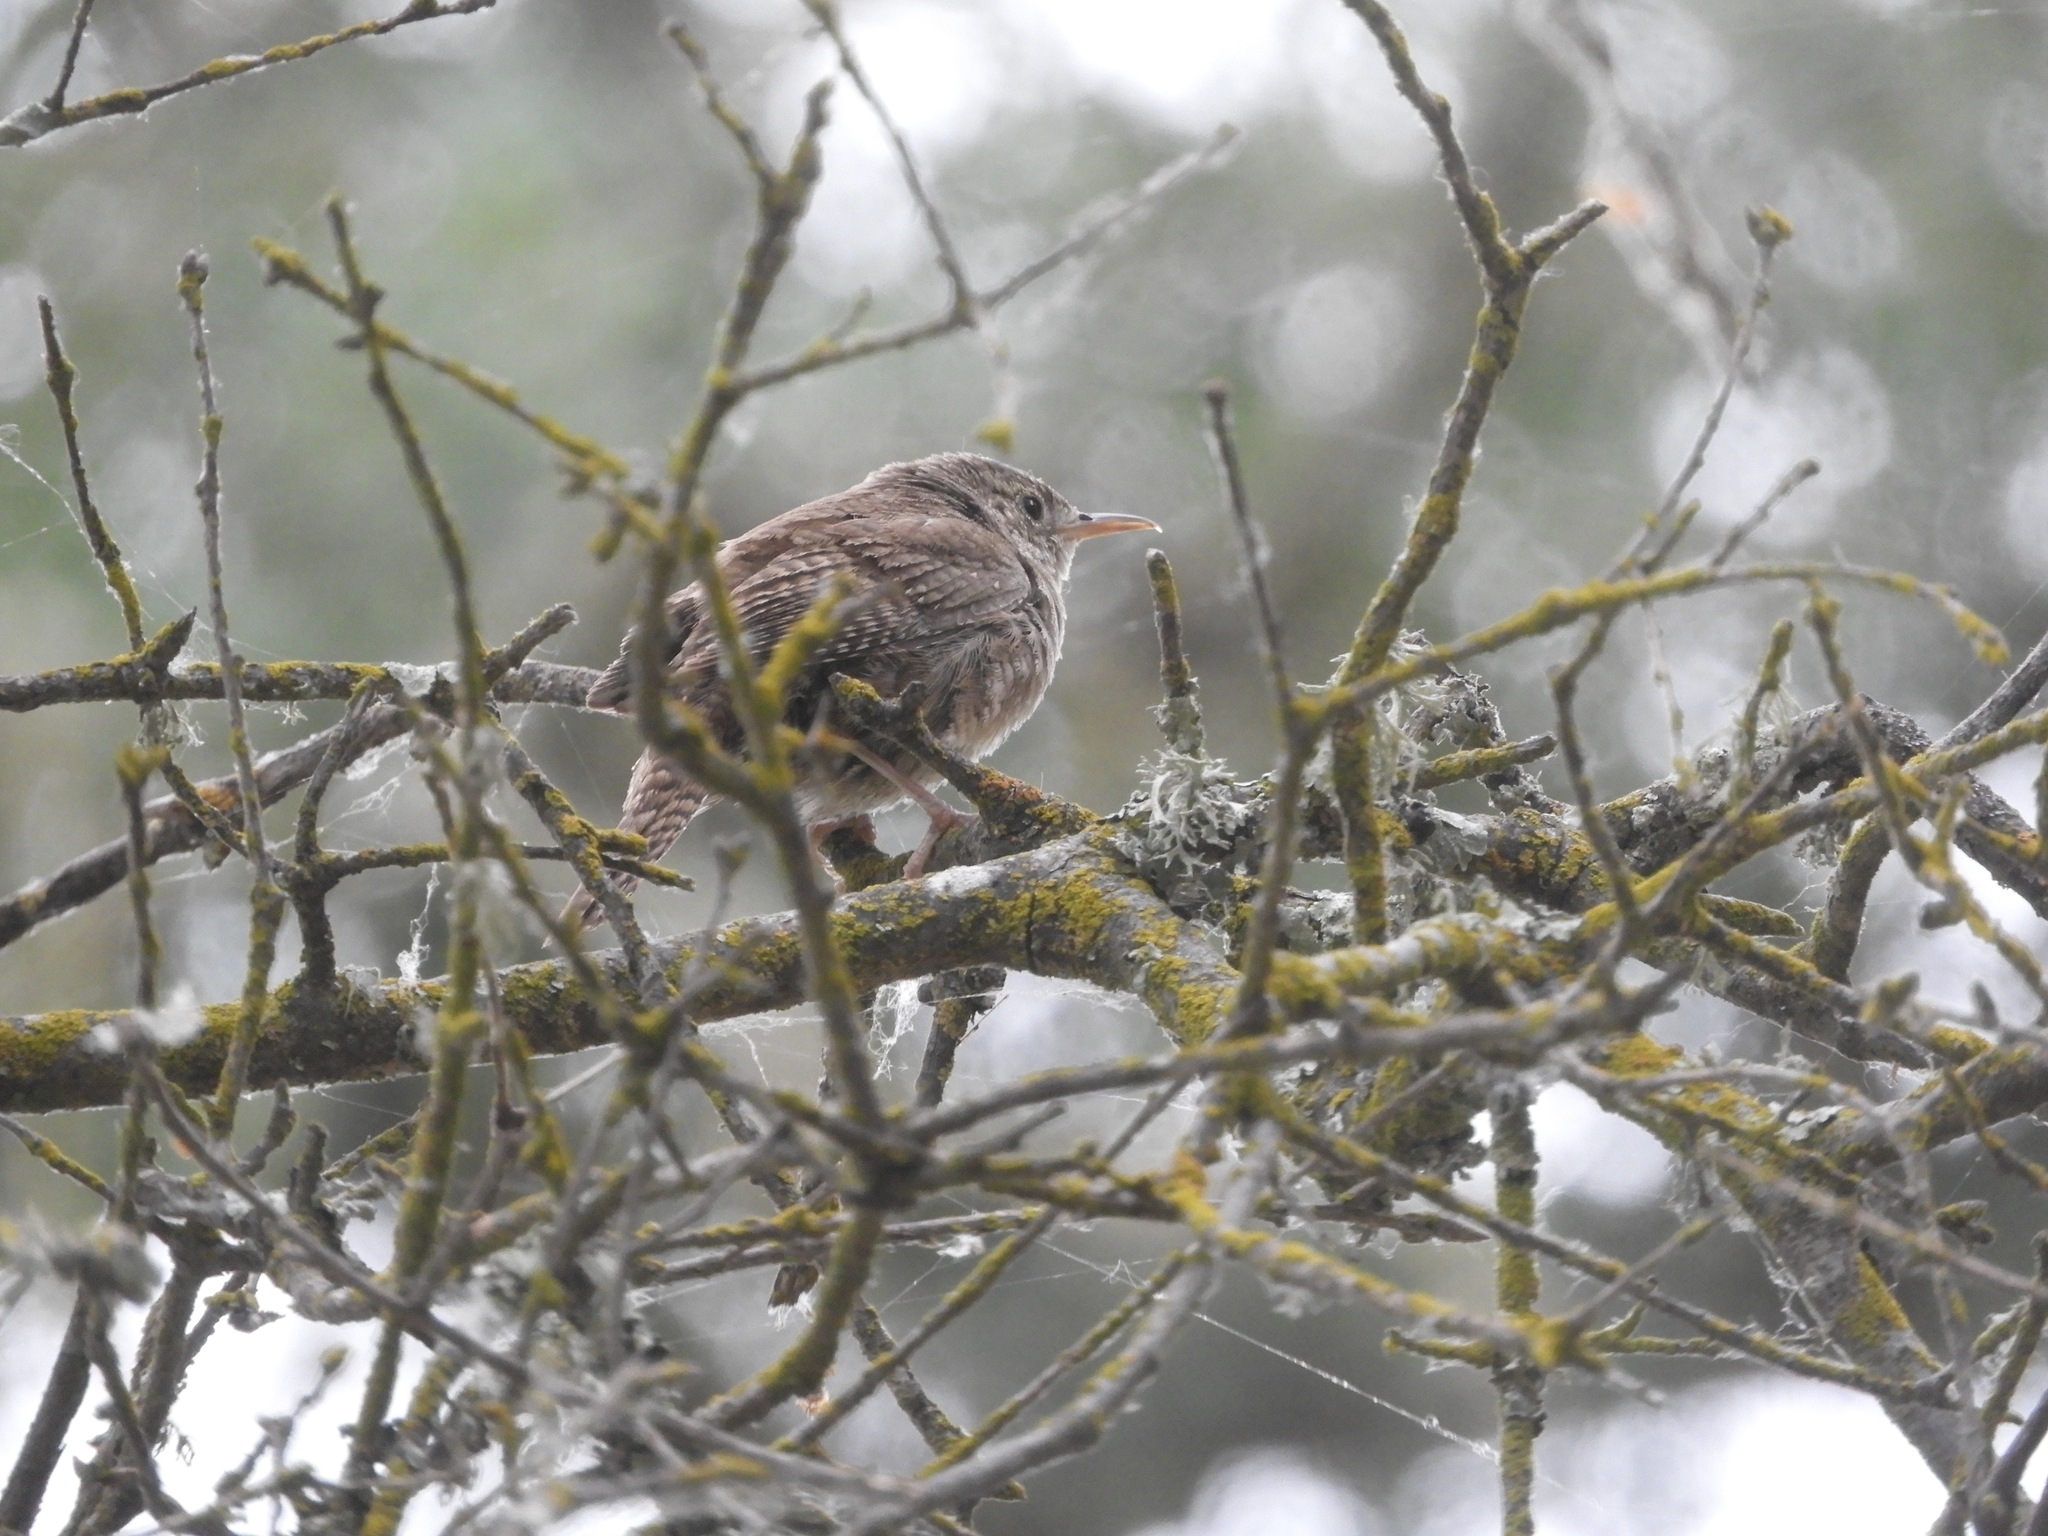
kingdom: Animalia
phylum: Chordata
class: Aves
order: Passeriformes
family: Troglodytidae
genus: Troglodytes
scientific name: Troglodytes aedon
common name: House wren
